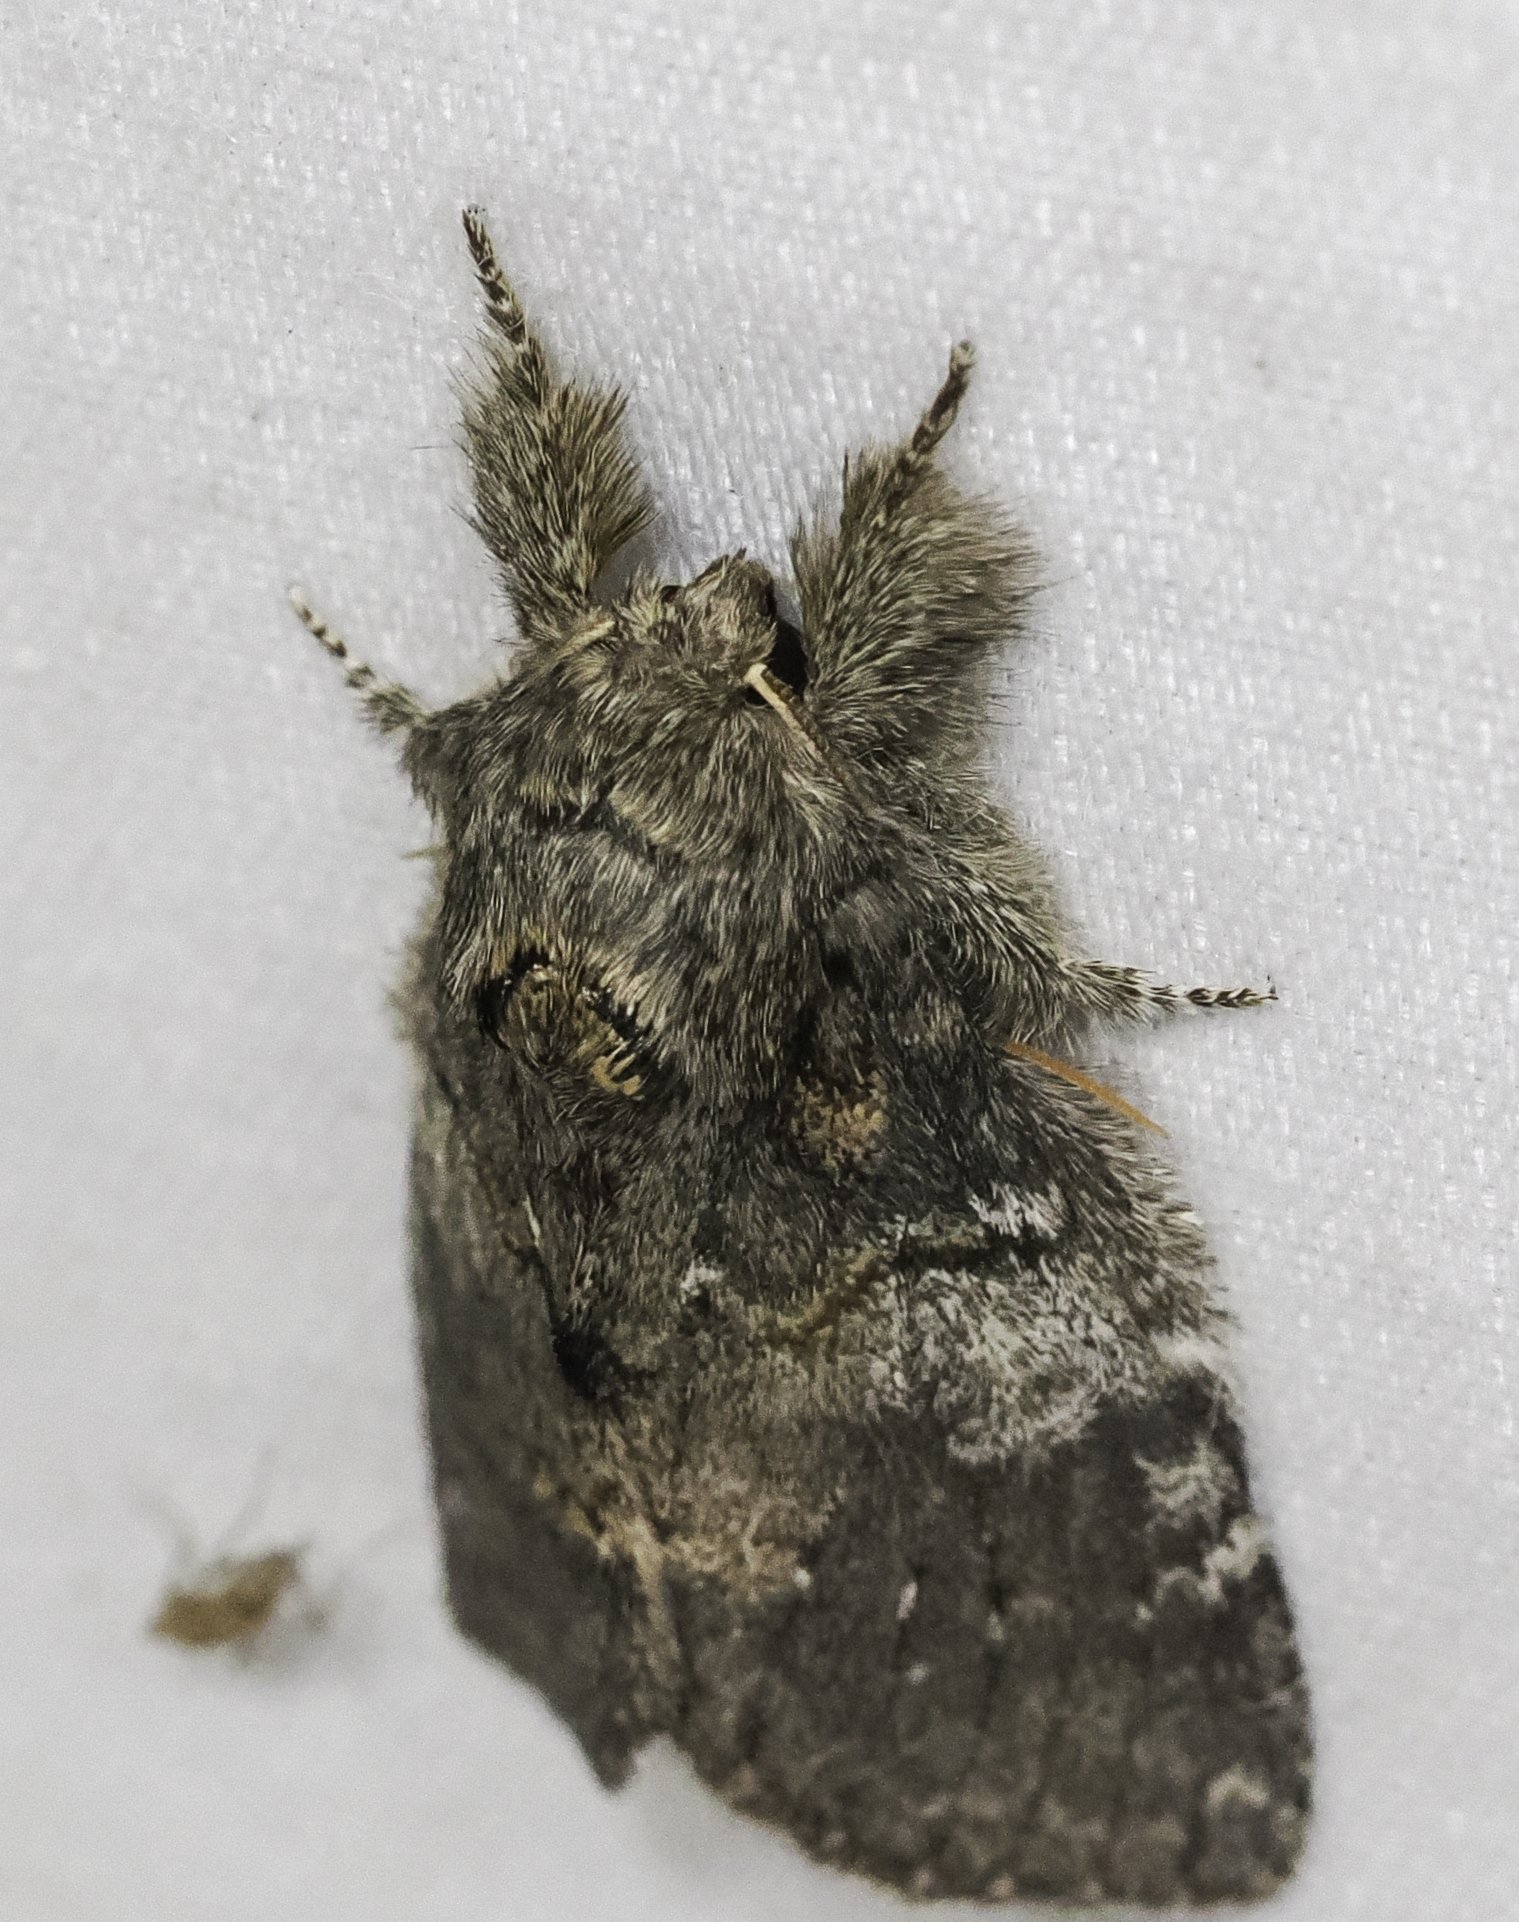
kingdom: Animalia
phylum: Arthropoda
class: Insecta
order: Lepidoptera
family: Notodontidae
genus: Peridea
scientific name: Peridea angulosa
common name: Angulose prominent
